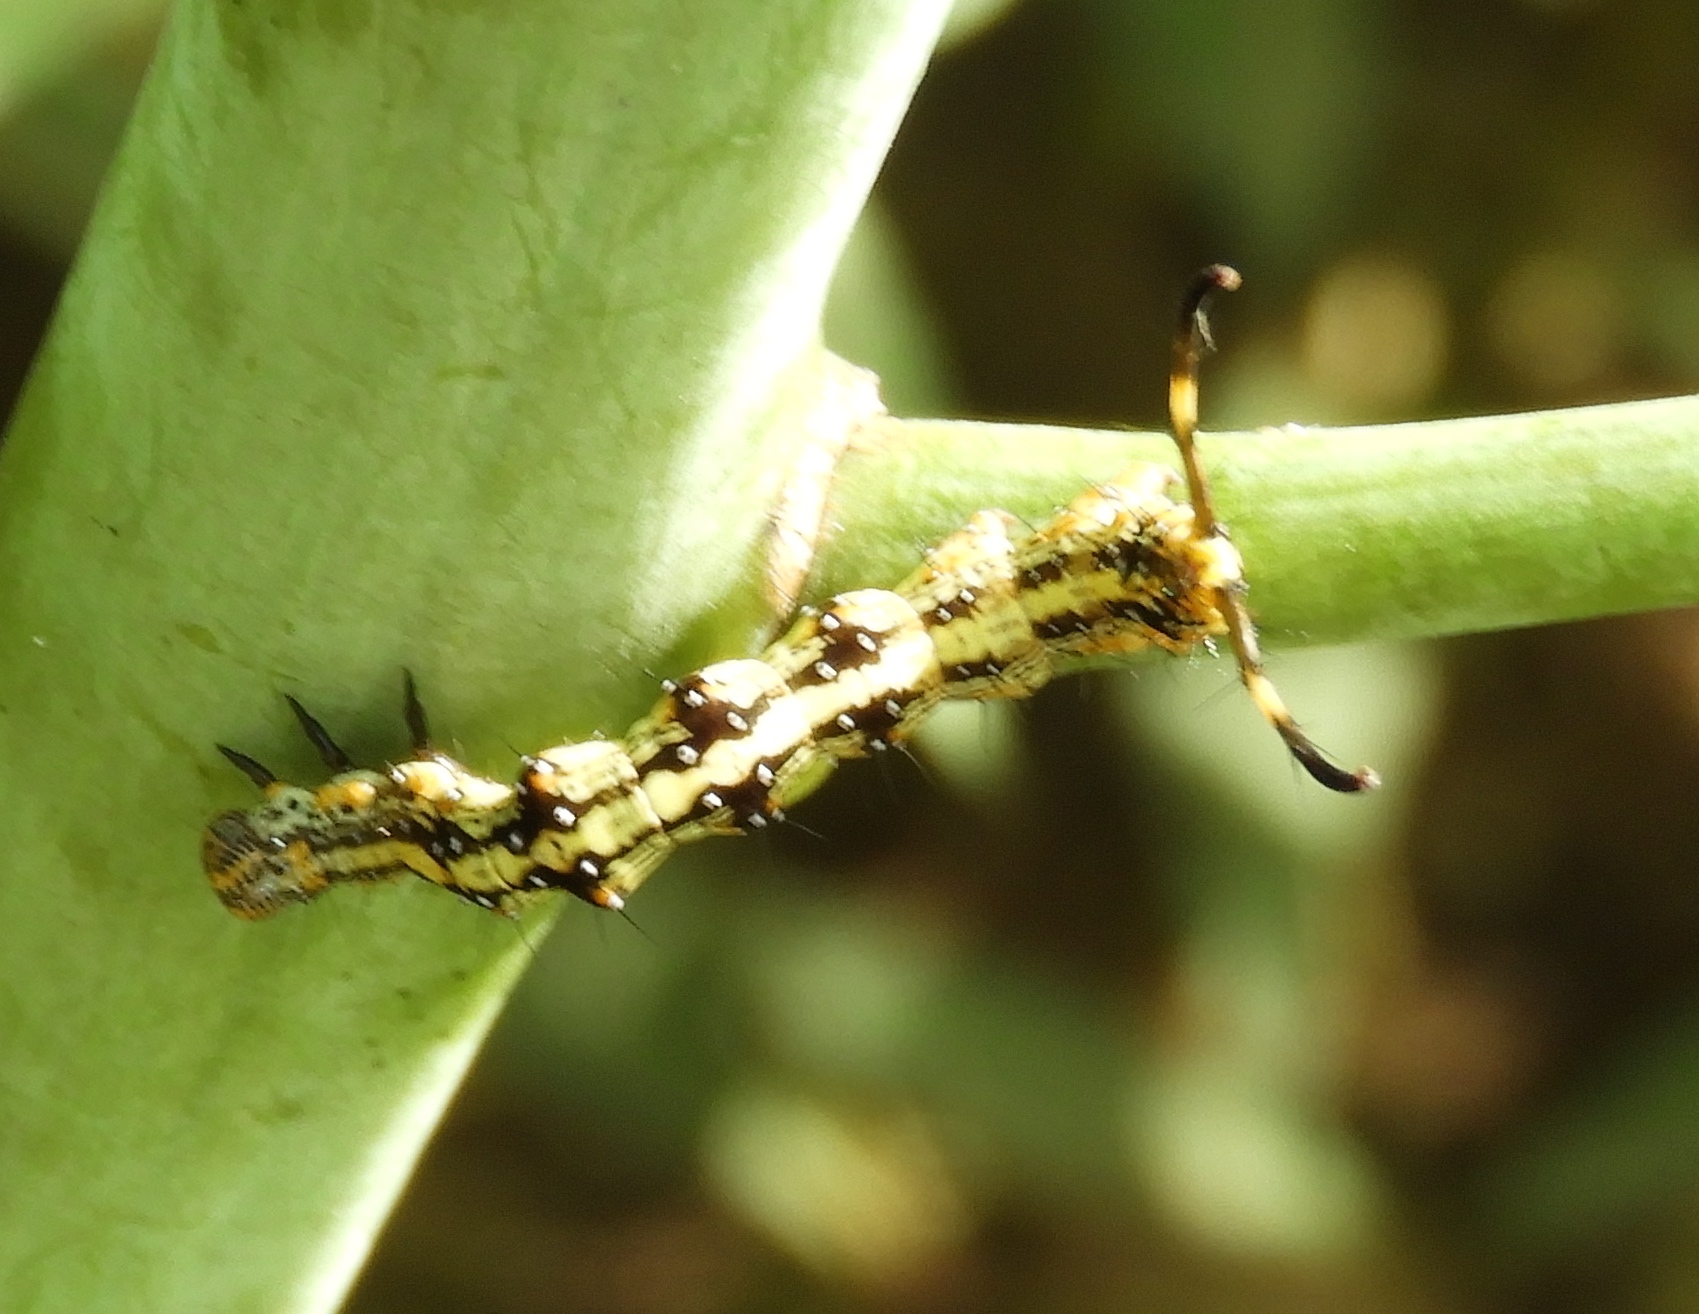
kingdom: Animalia
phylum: Arthropoda
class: Insecta
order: Lepidoptera
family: Erebidae
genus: Selenisa
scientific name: Selenisa sueroides
